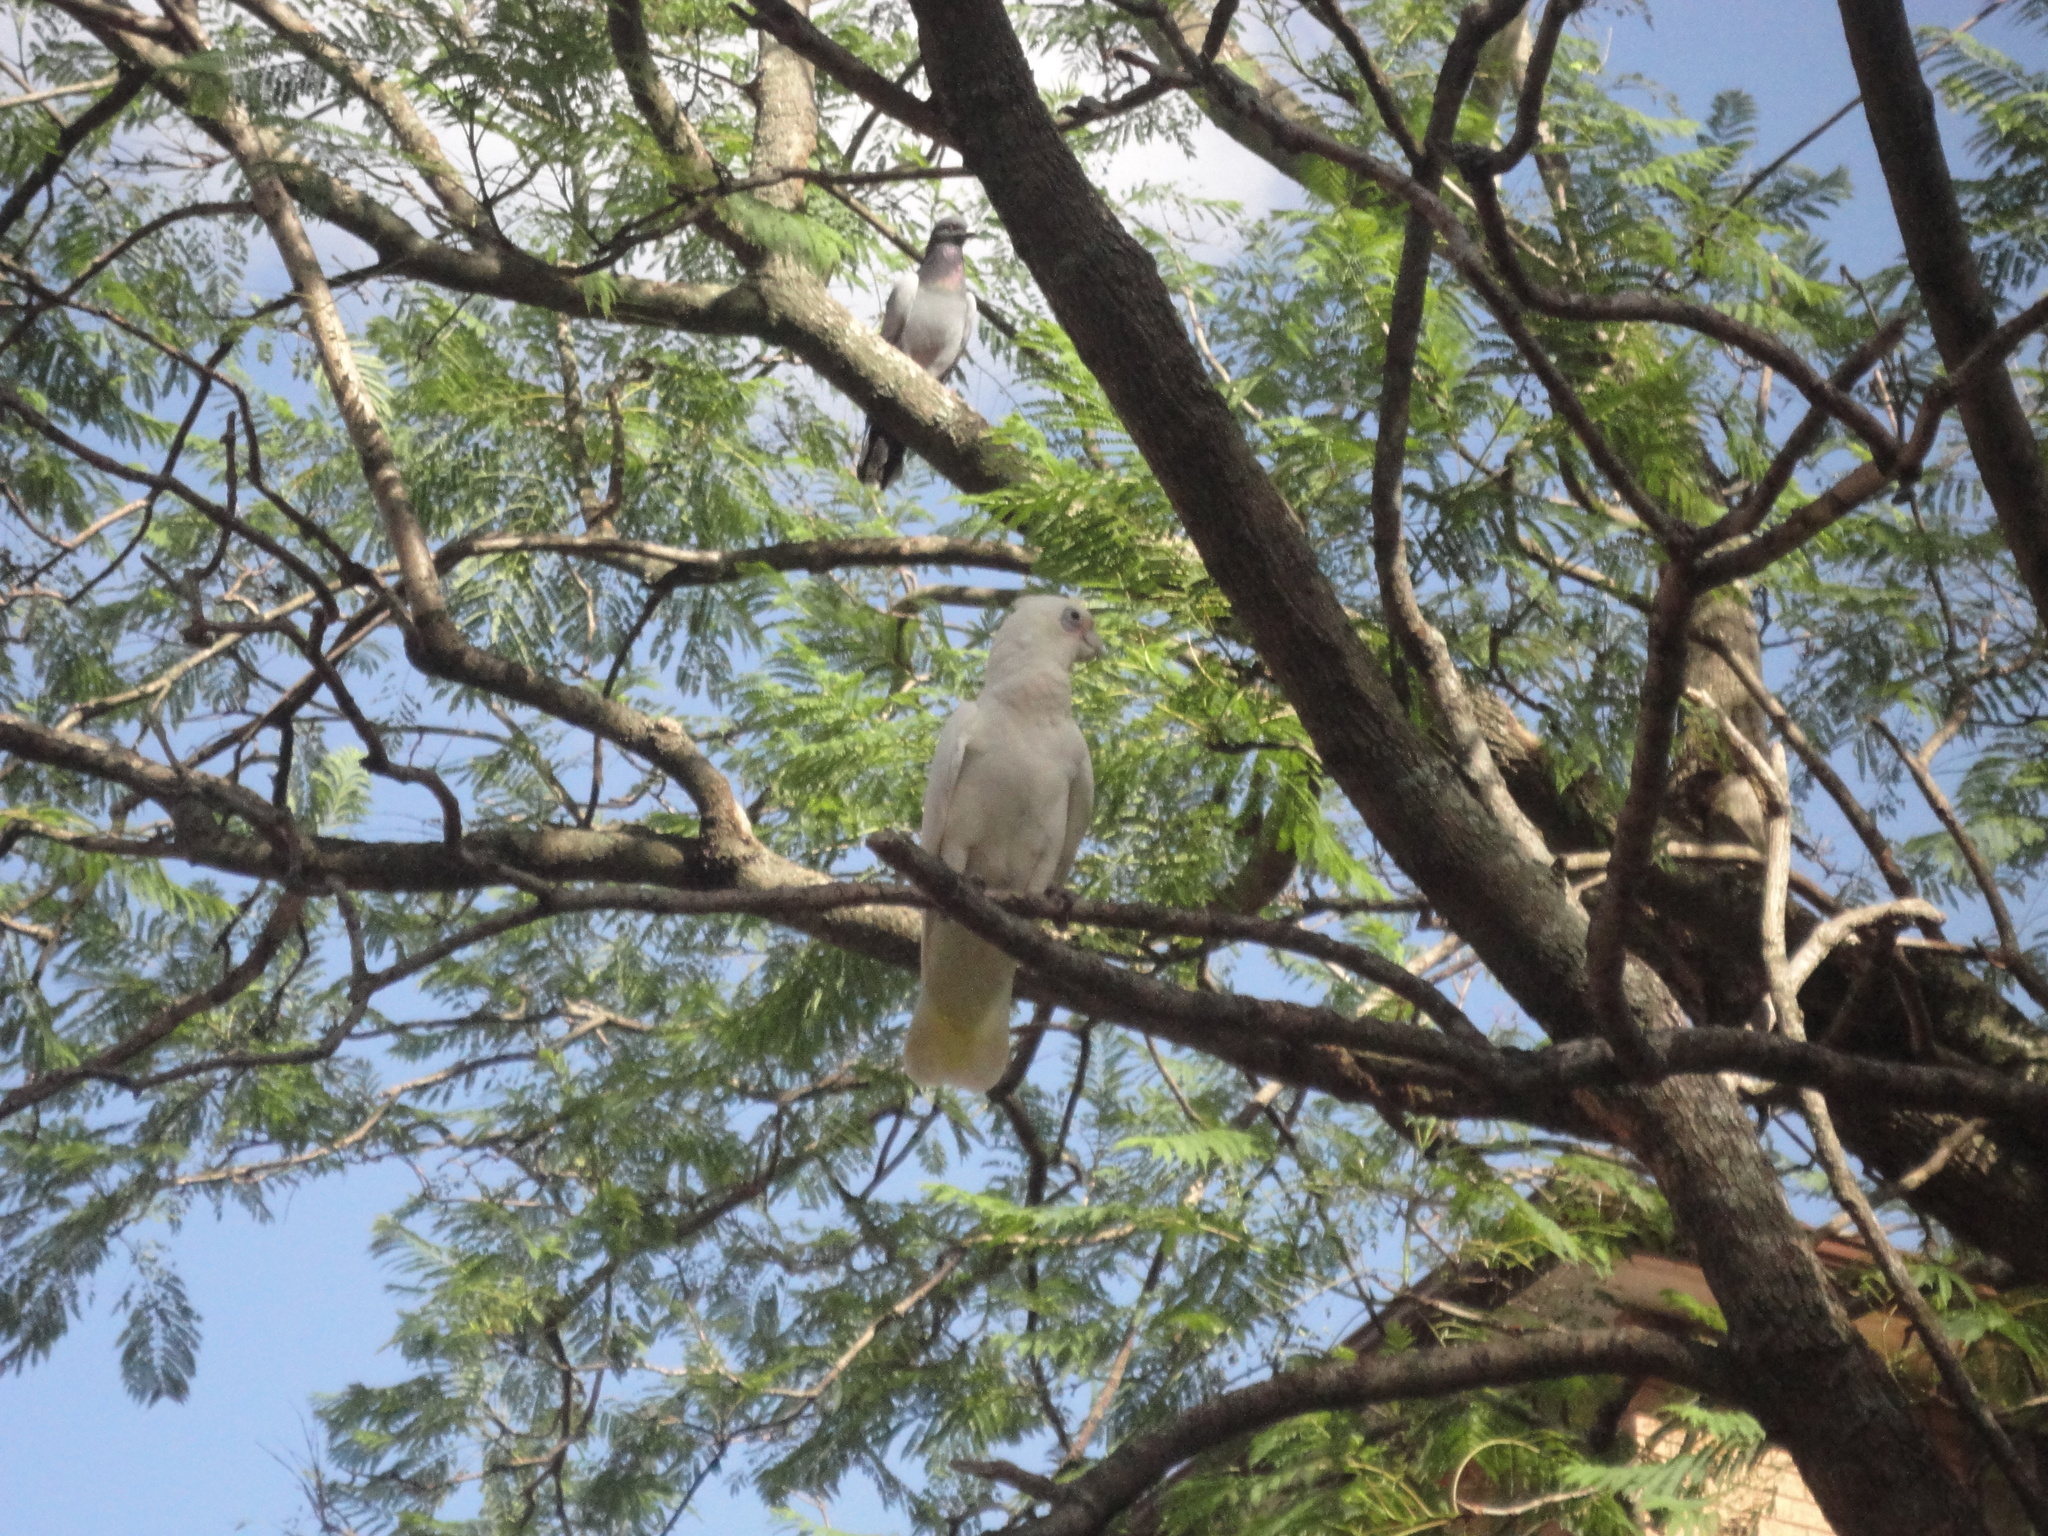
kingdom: Animalia
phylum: Chordata
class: Aves
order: Psittaciformes
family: Psittacidae
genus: Cacatua
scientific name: Cacatua sanguinea
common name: Little corella
